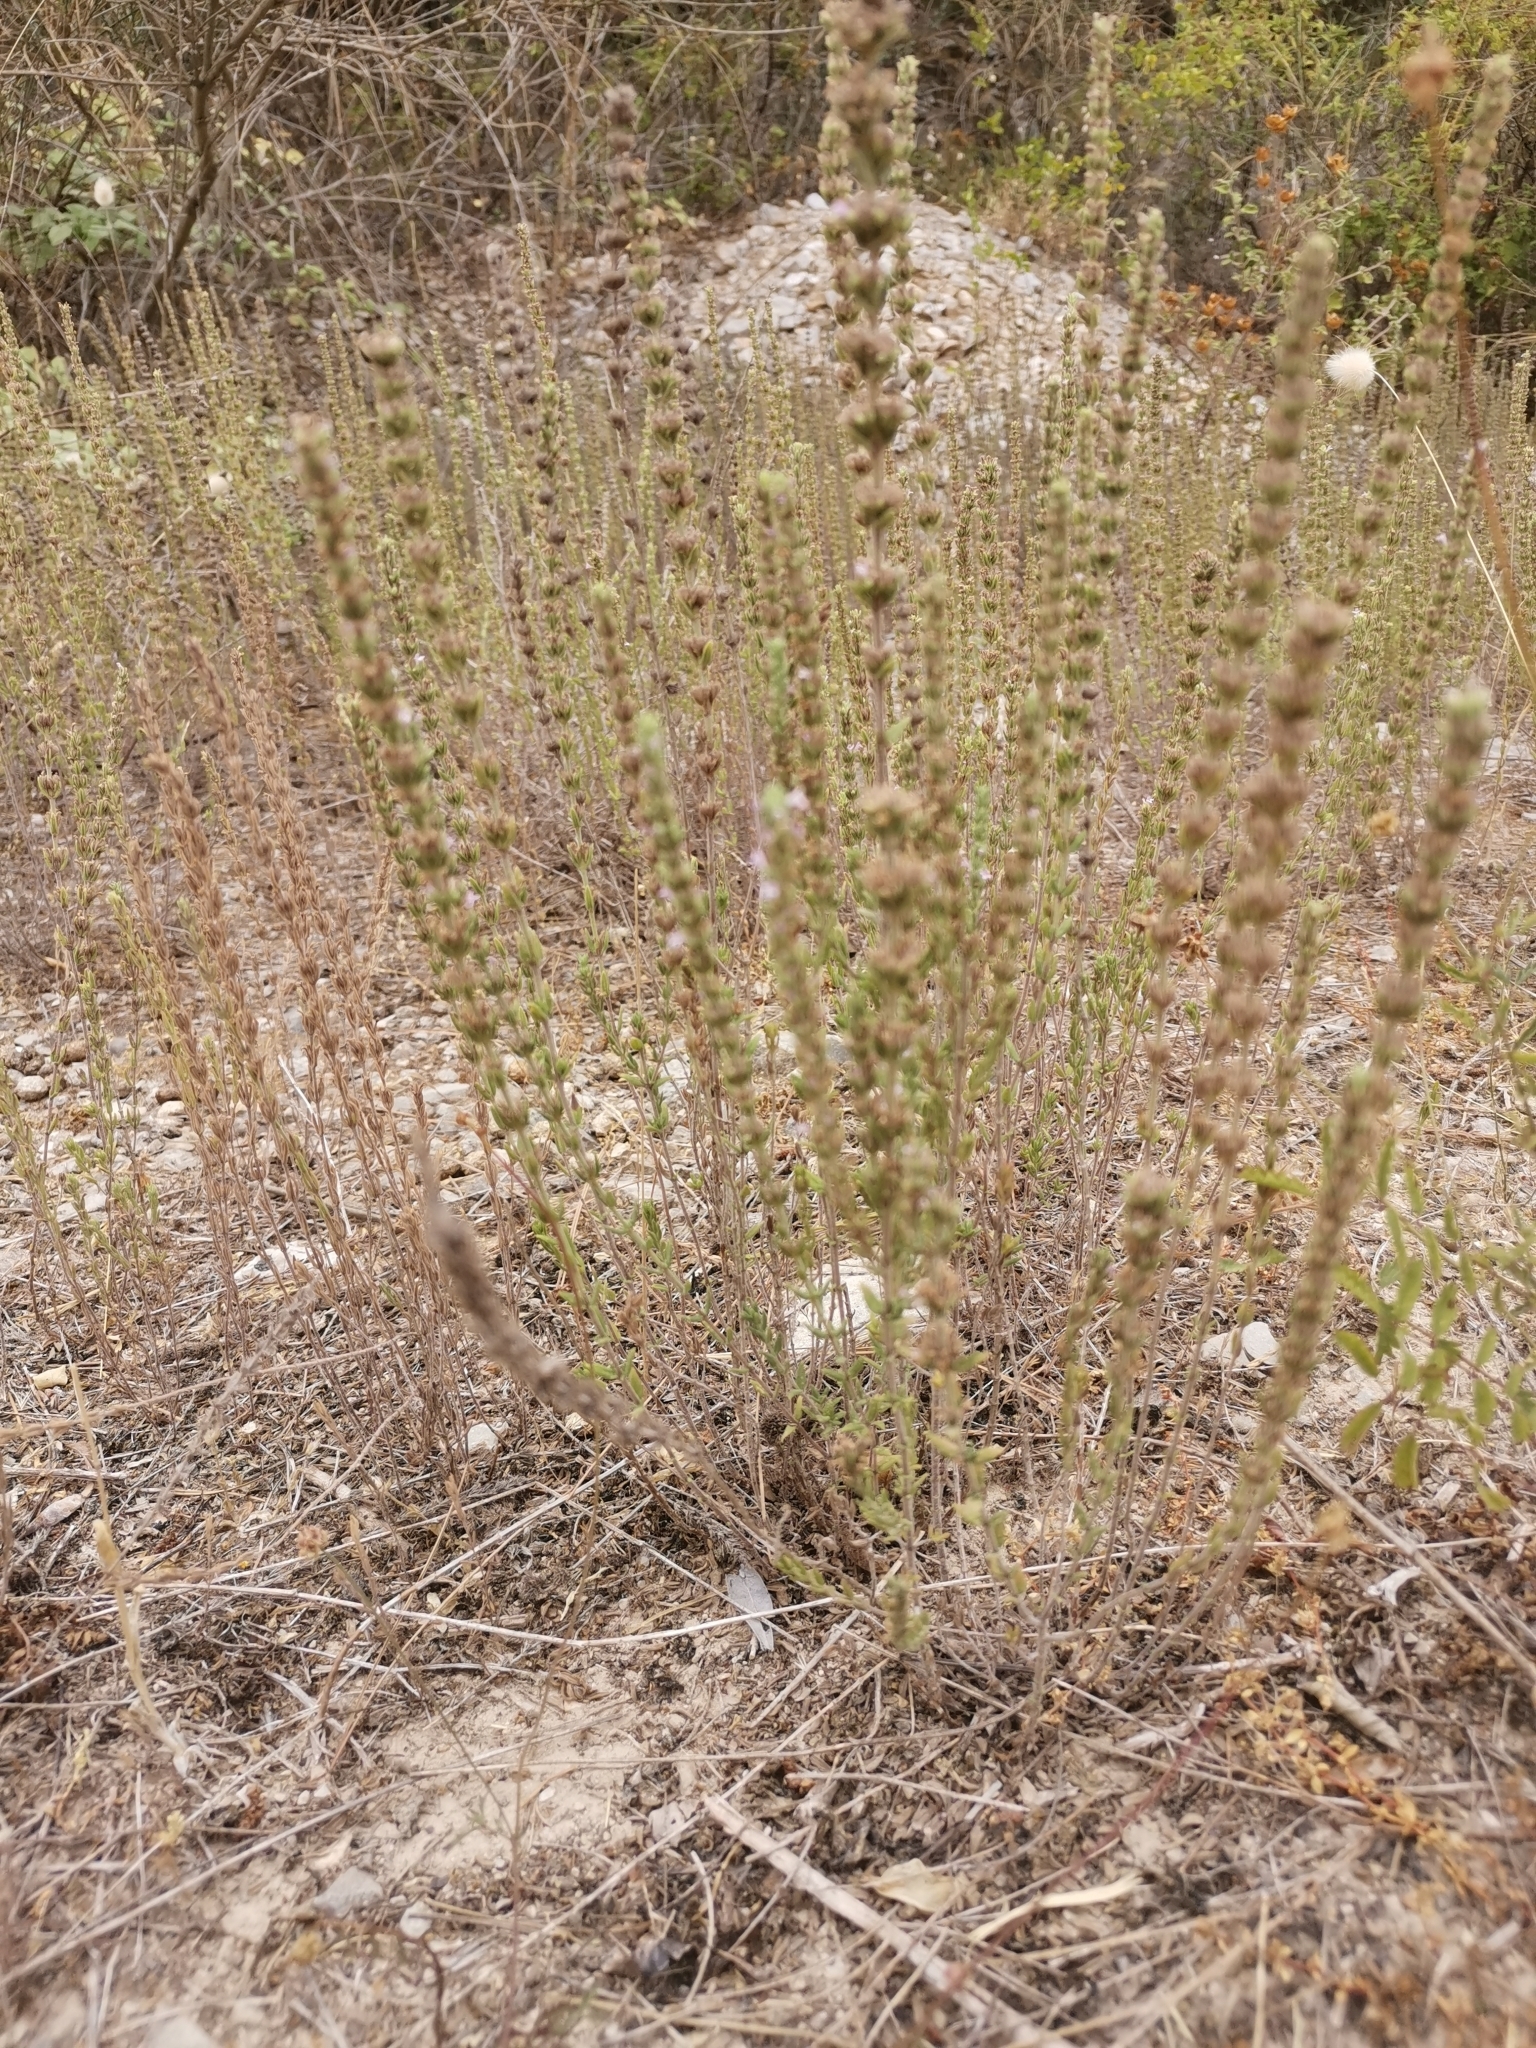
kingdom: Plantae
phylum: Tracheophyta
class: Magnoliopsida
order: Lamiales
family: Lamiaceae
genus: Micromeria
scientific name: Micromeria juliana
